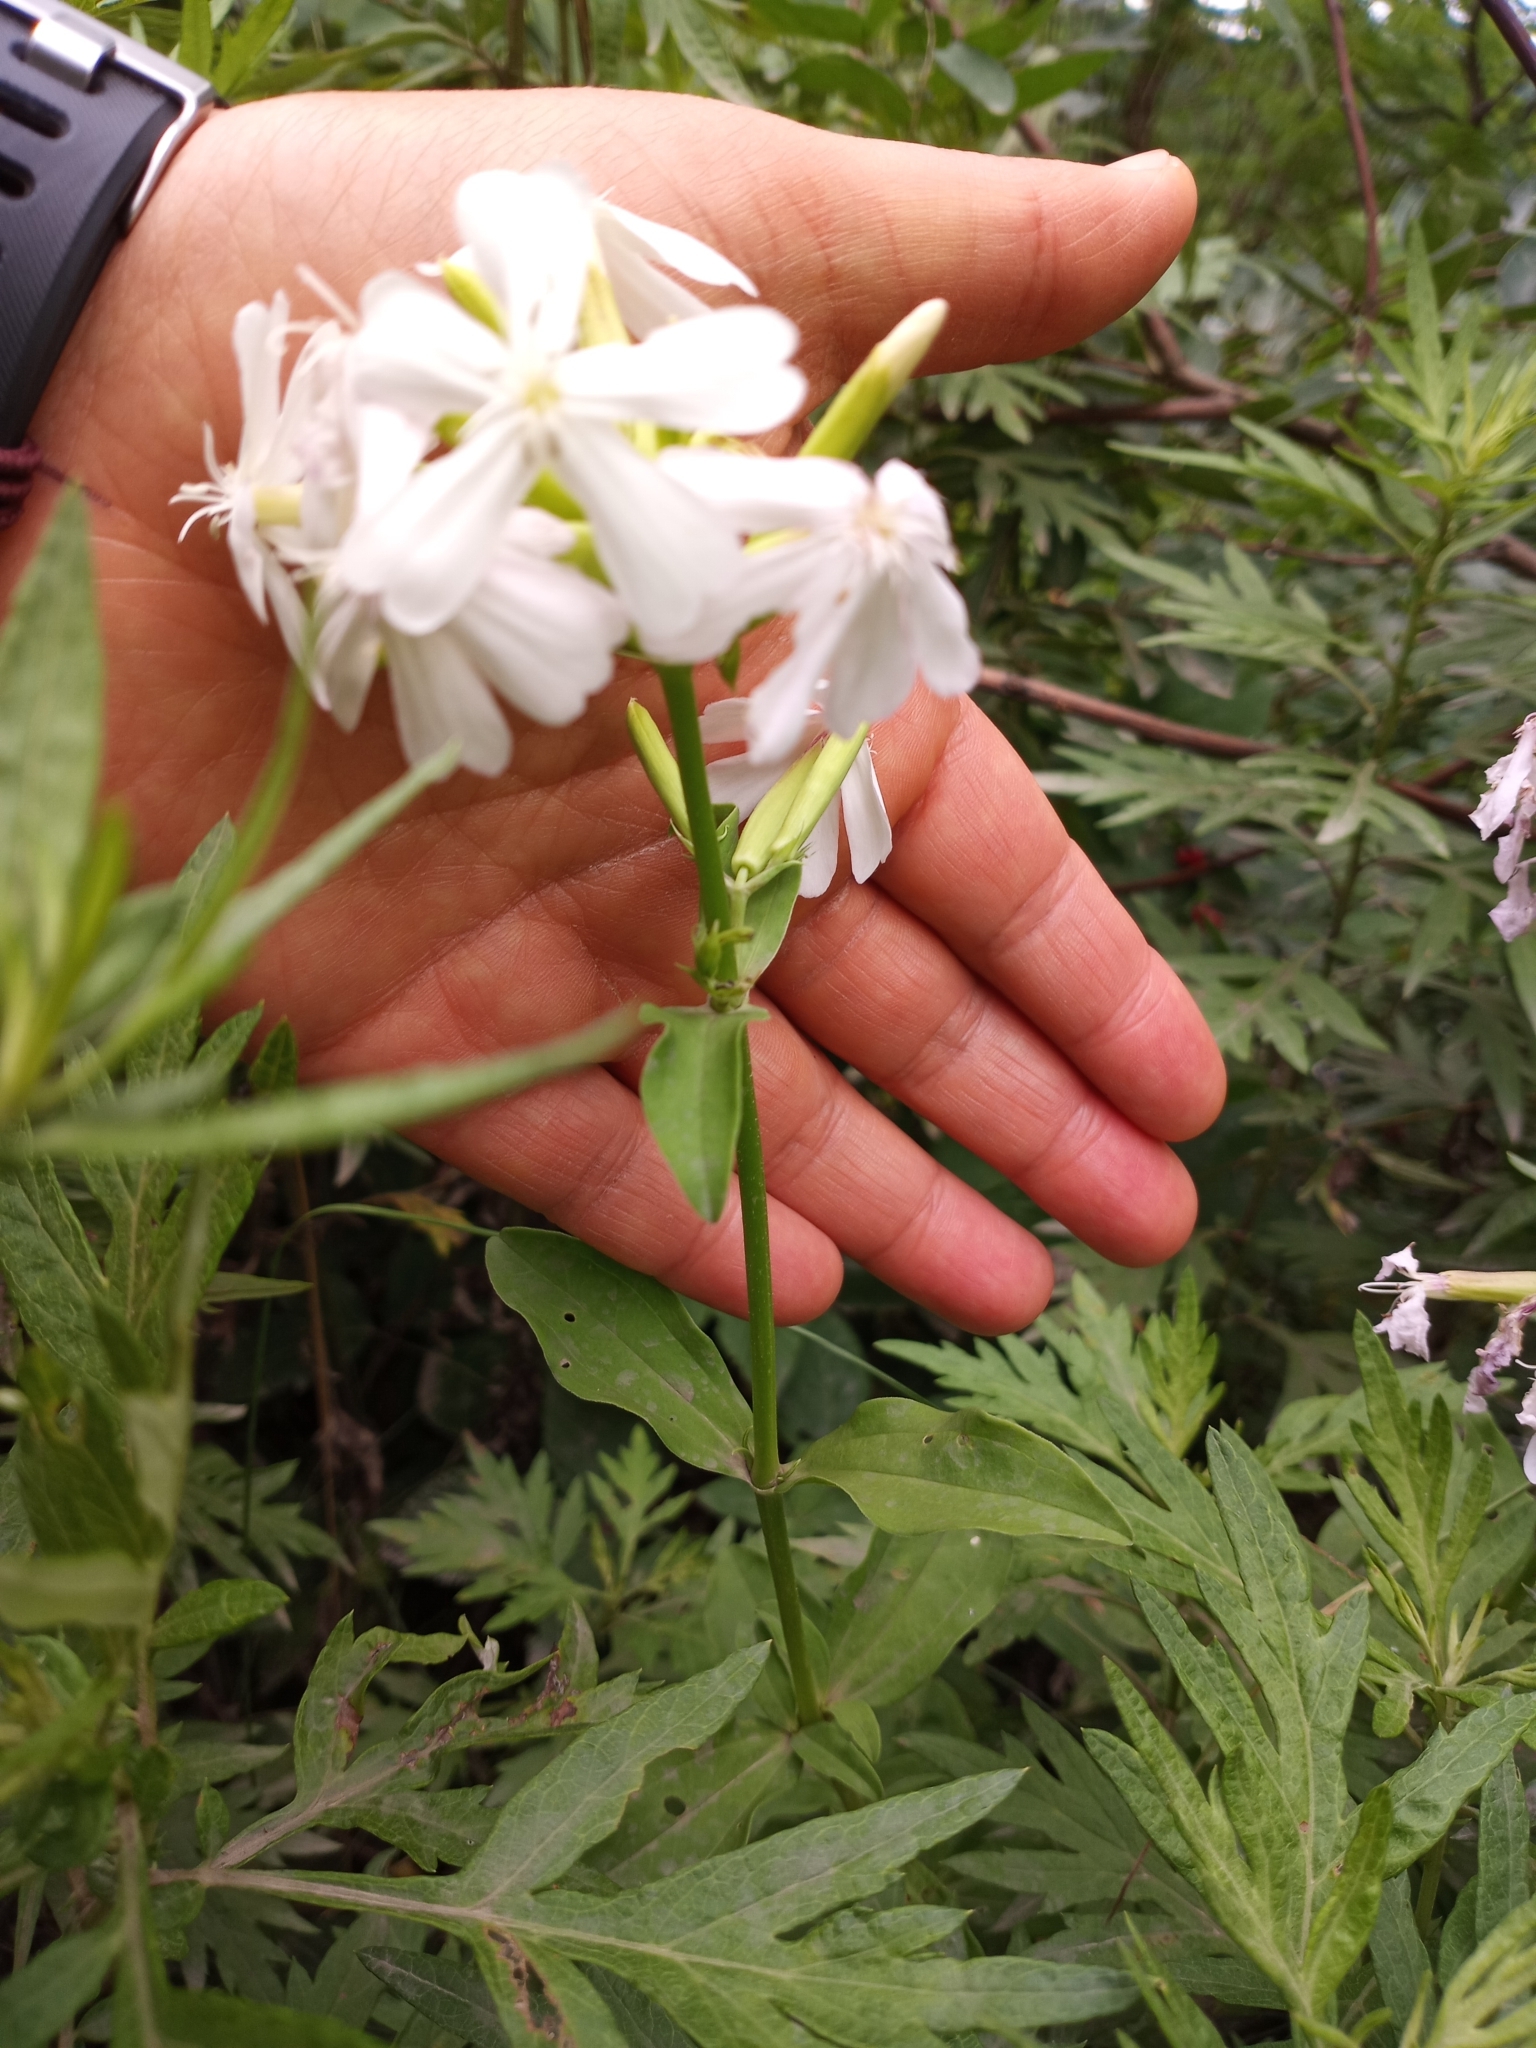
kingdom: Plantae
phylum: Tracheophyta
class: Magnoliopsida
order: Caryophyllales
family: Caryophyllaceae
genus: Saponaria
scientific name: Saponaria officinalis
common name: Soapwort
